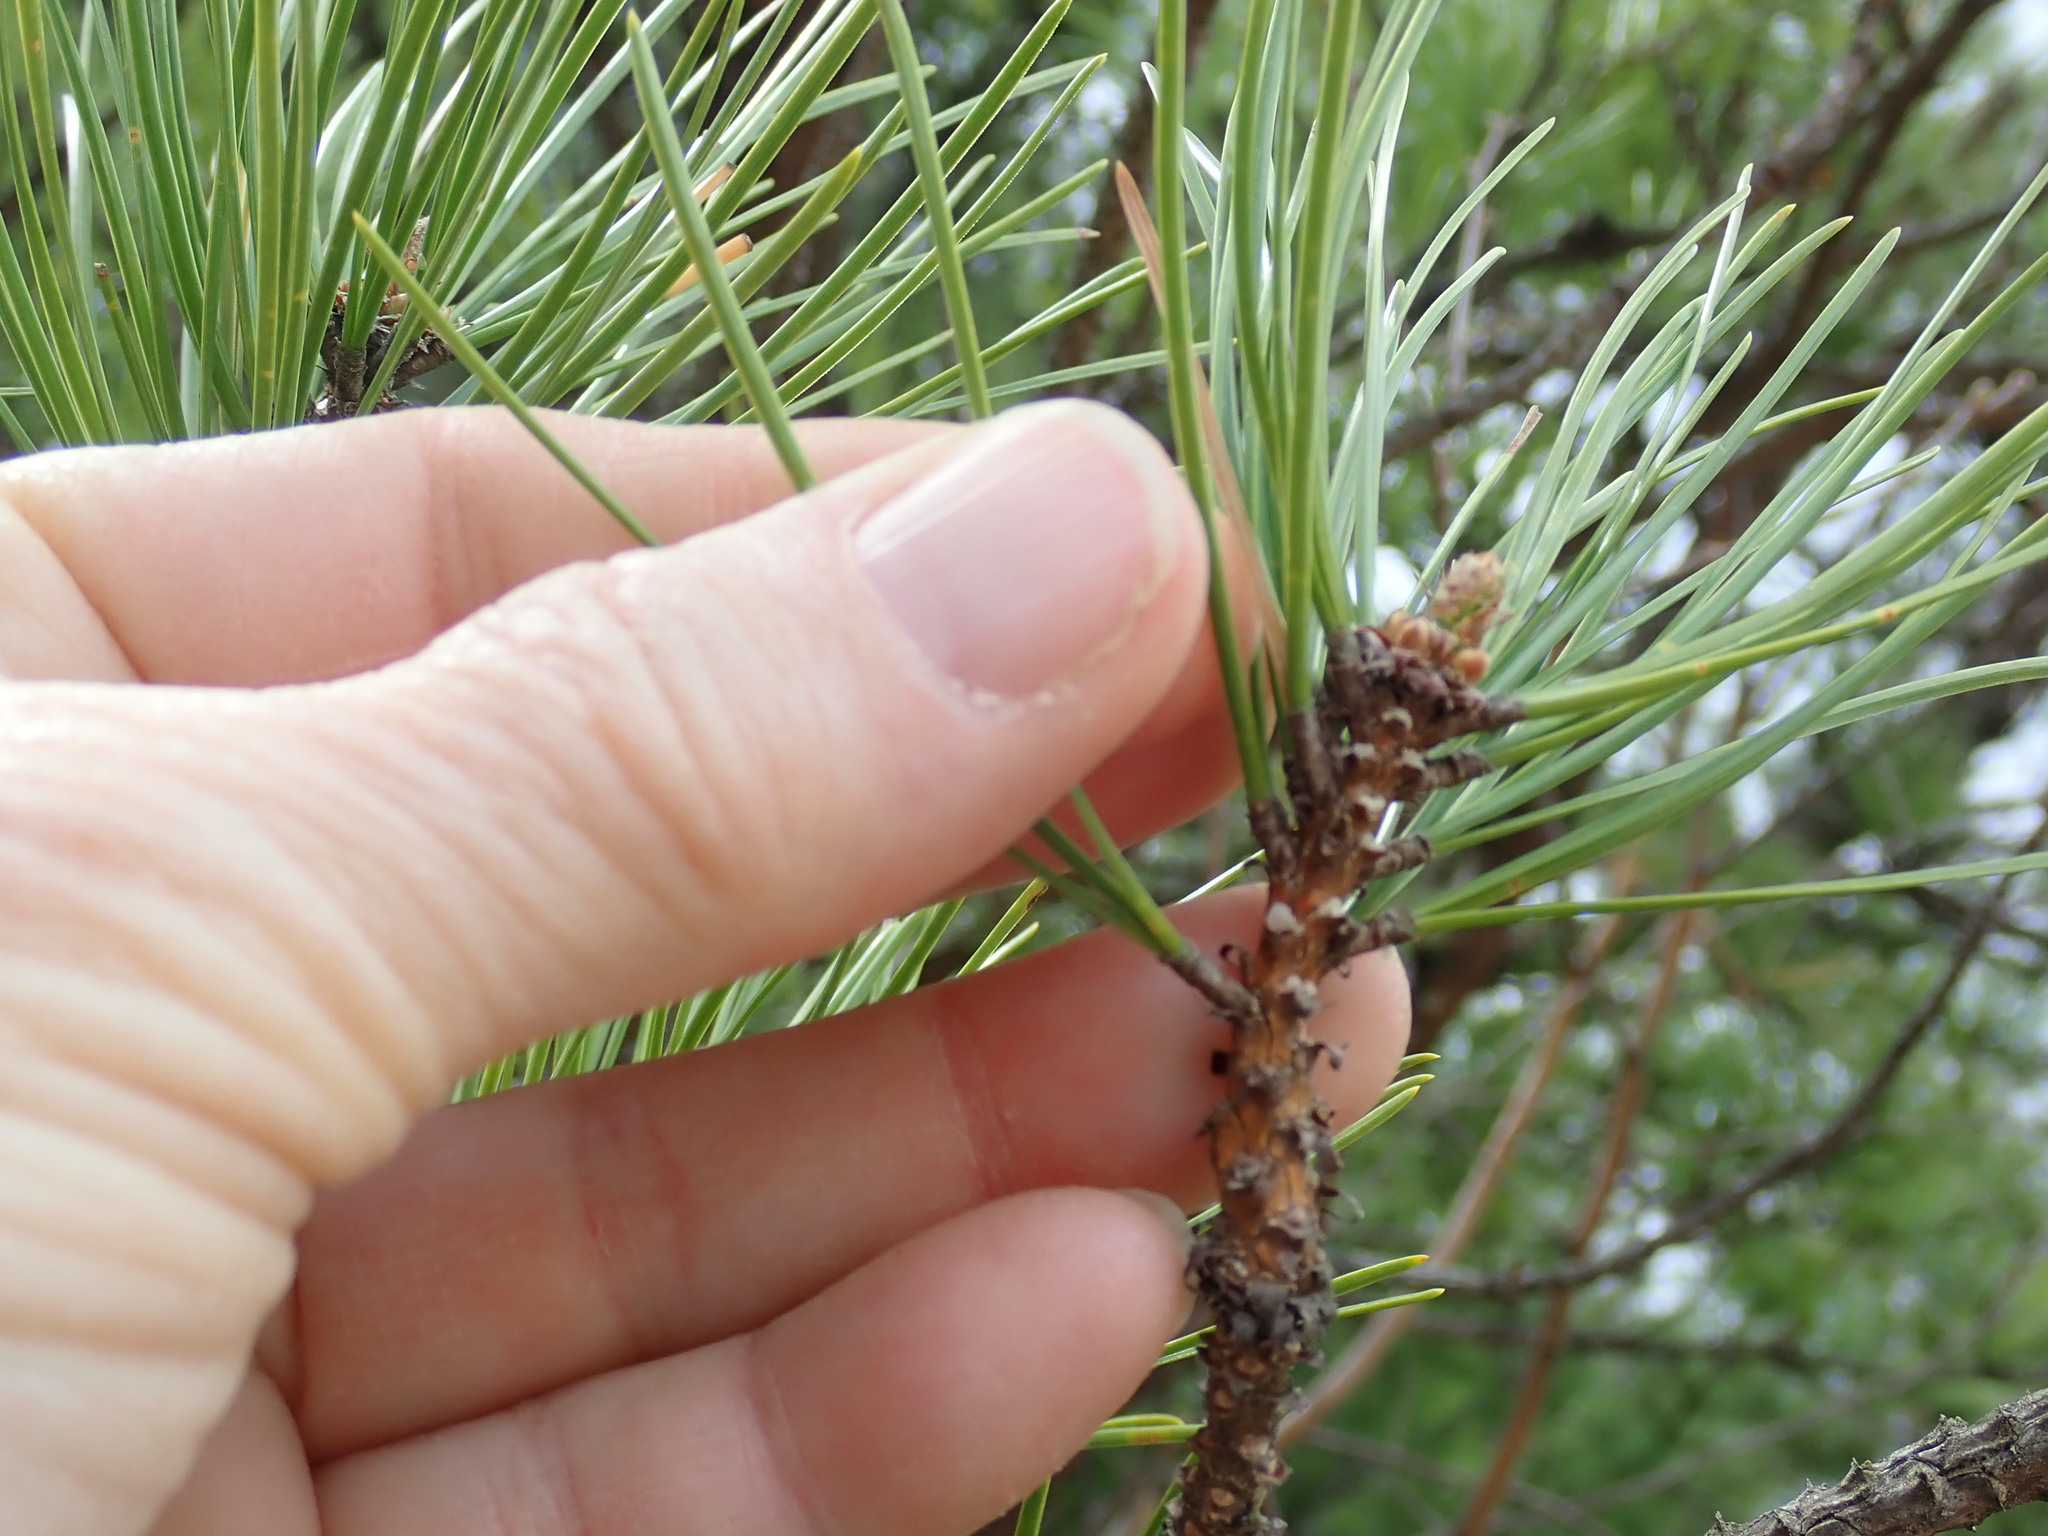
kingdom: Plantae
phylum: Tracheophyta
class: Pinopsida
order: Pinales
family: Pinaceae
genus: Pinus
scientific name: Pinus rigida
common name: Pitch pine
